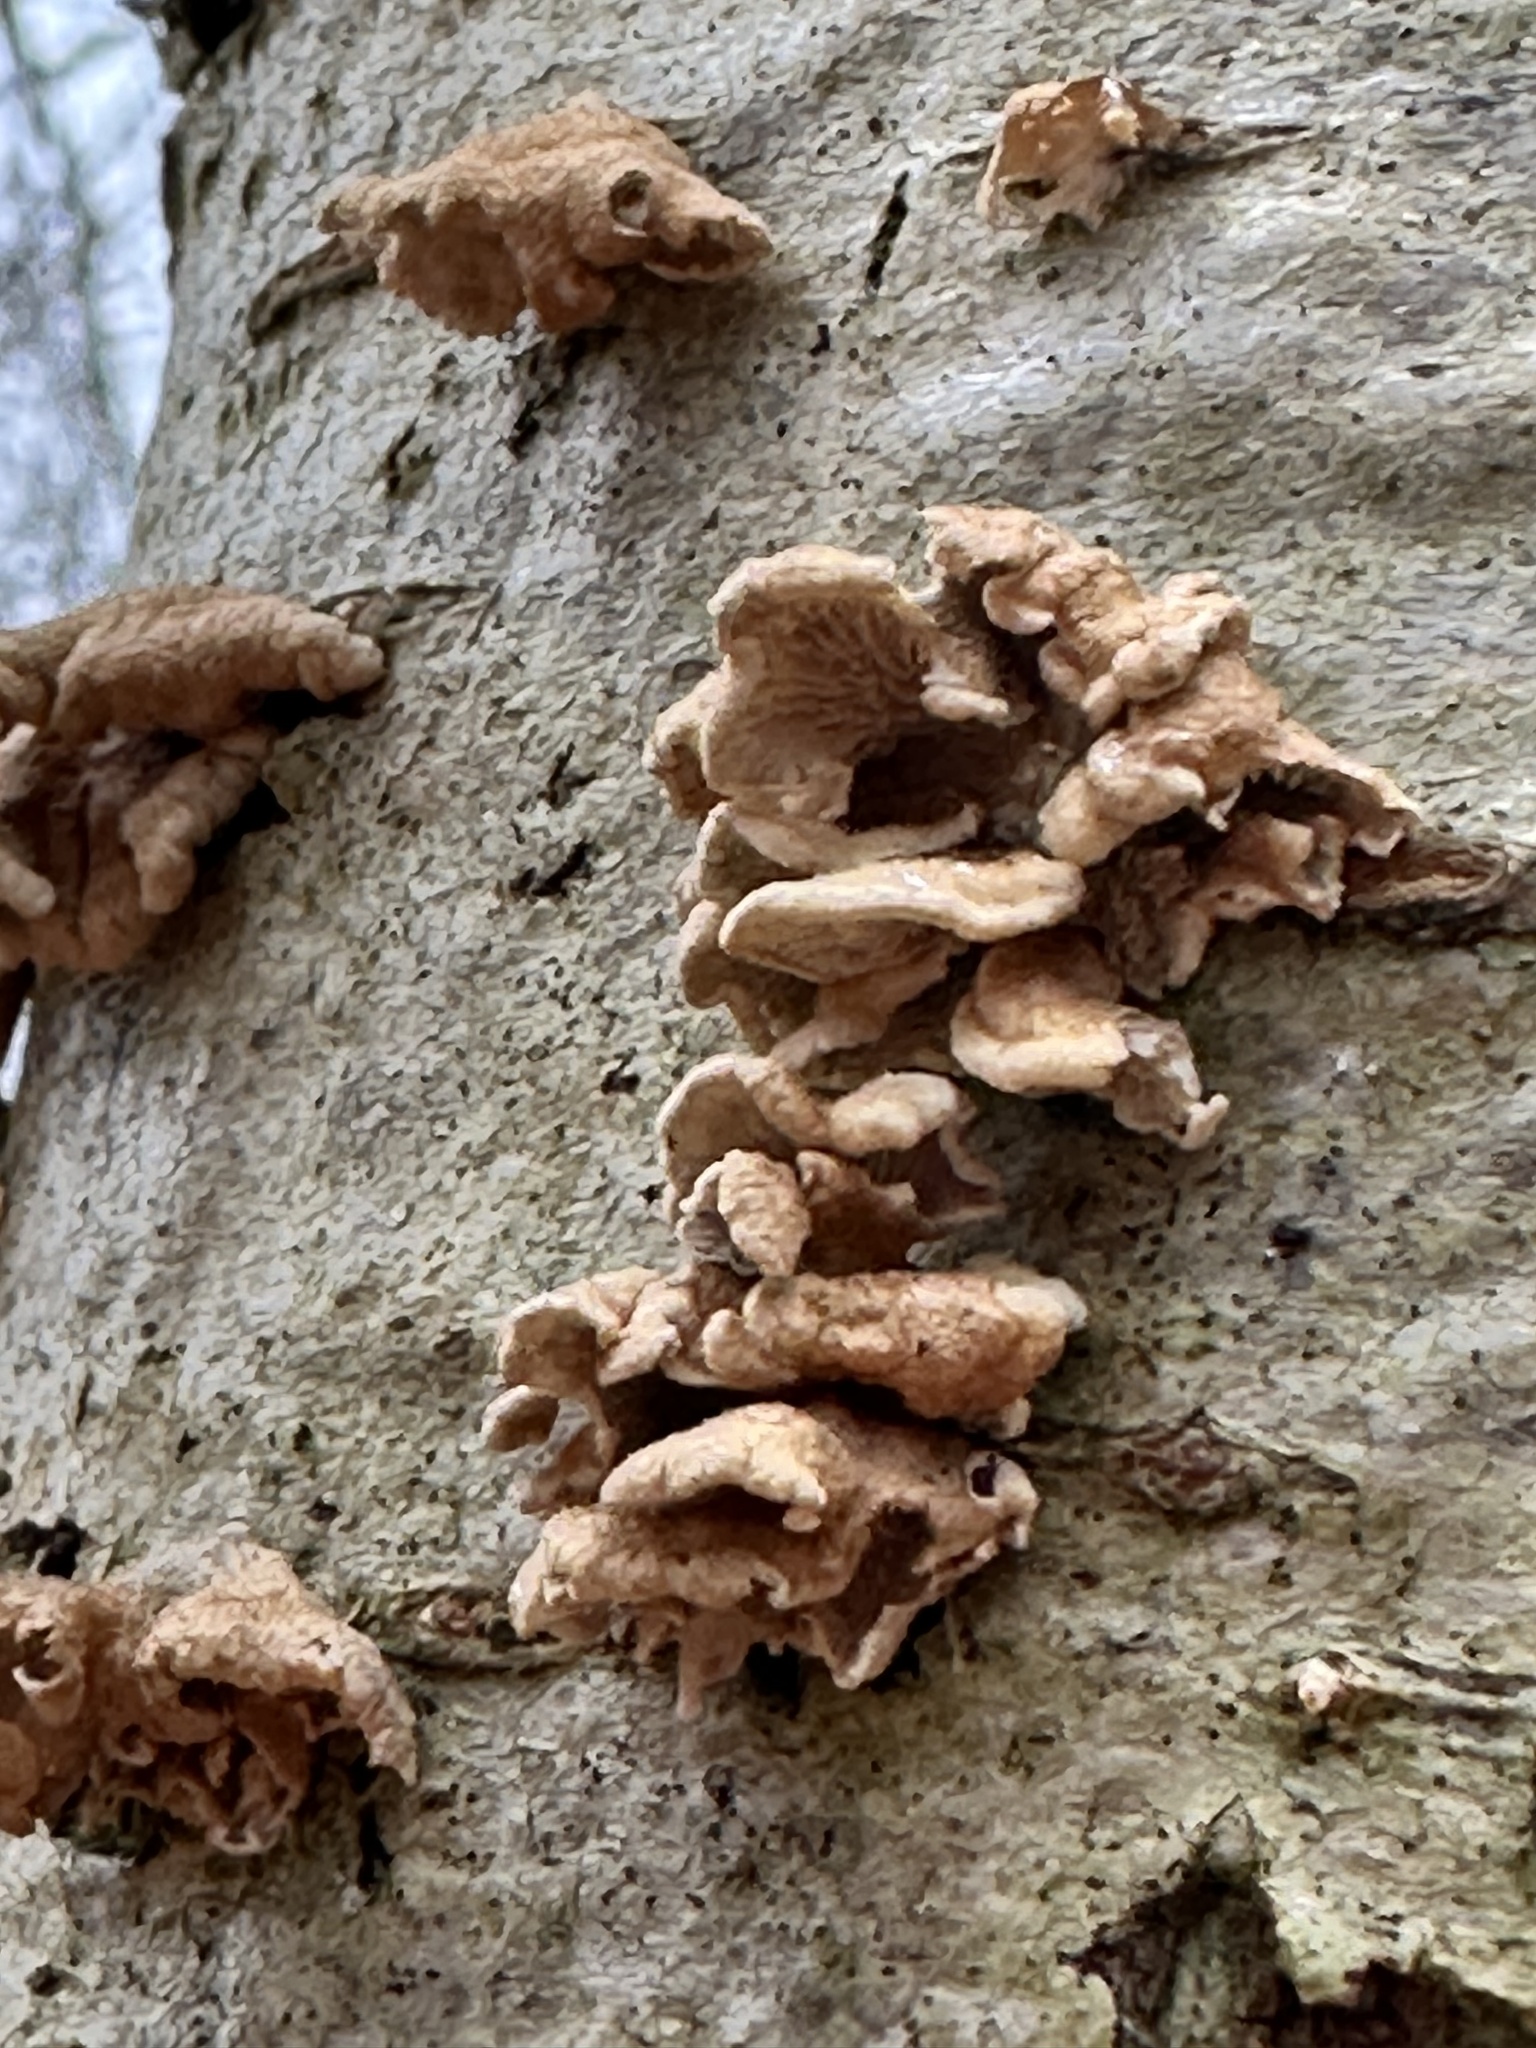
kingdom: Fungi
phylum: Basidiomycota
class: Agaricomycetes
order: Amylocorticiales
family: Amylocorticiaceae
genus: Plicaturopsis
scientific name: Plicaturopsis crispa
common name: Crimped gill
